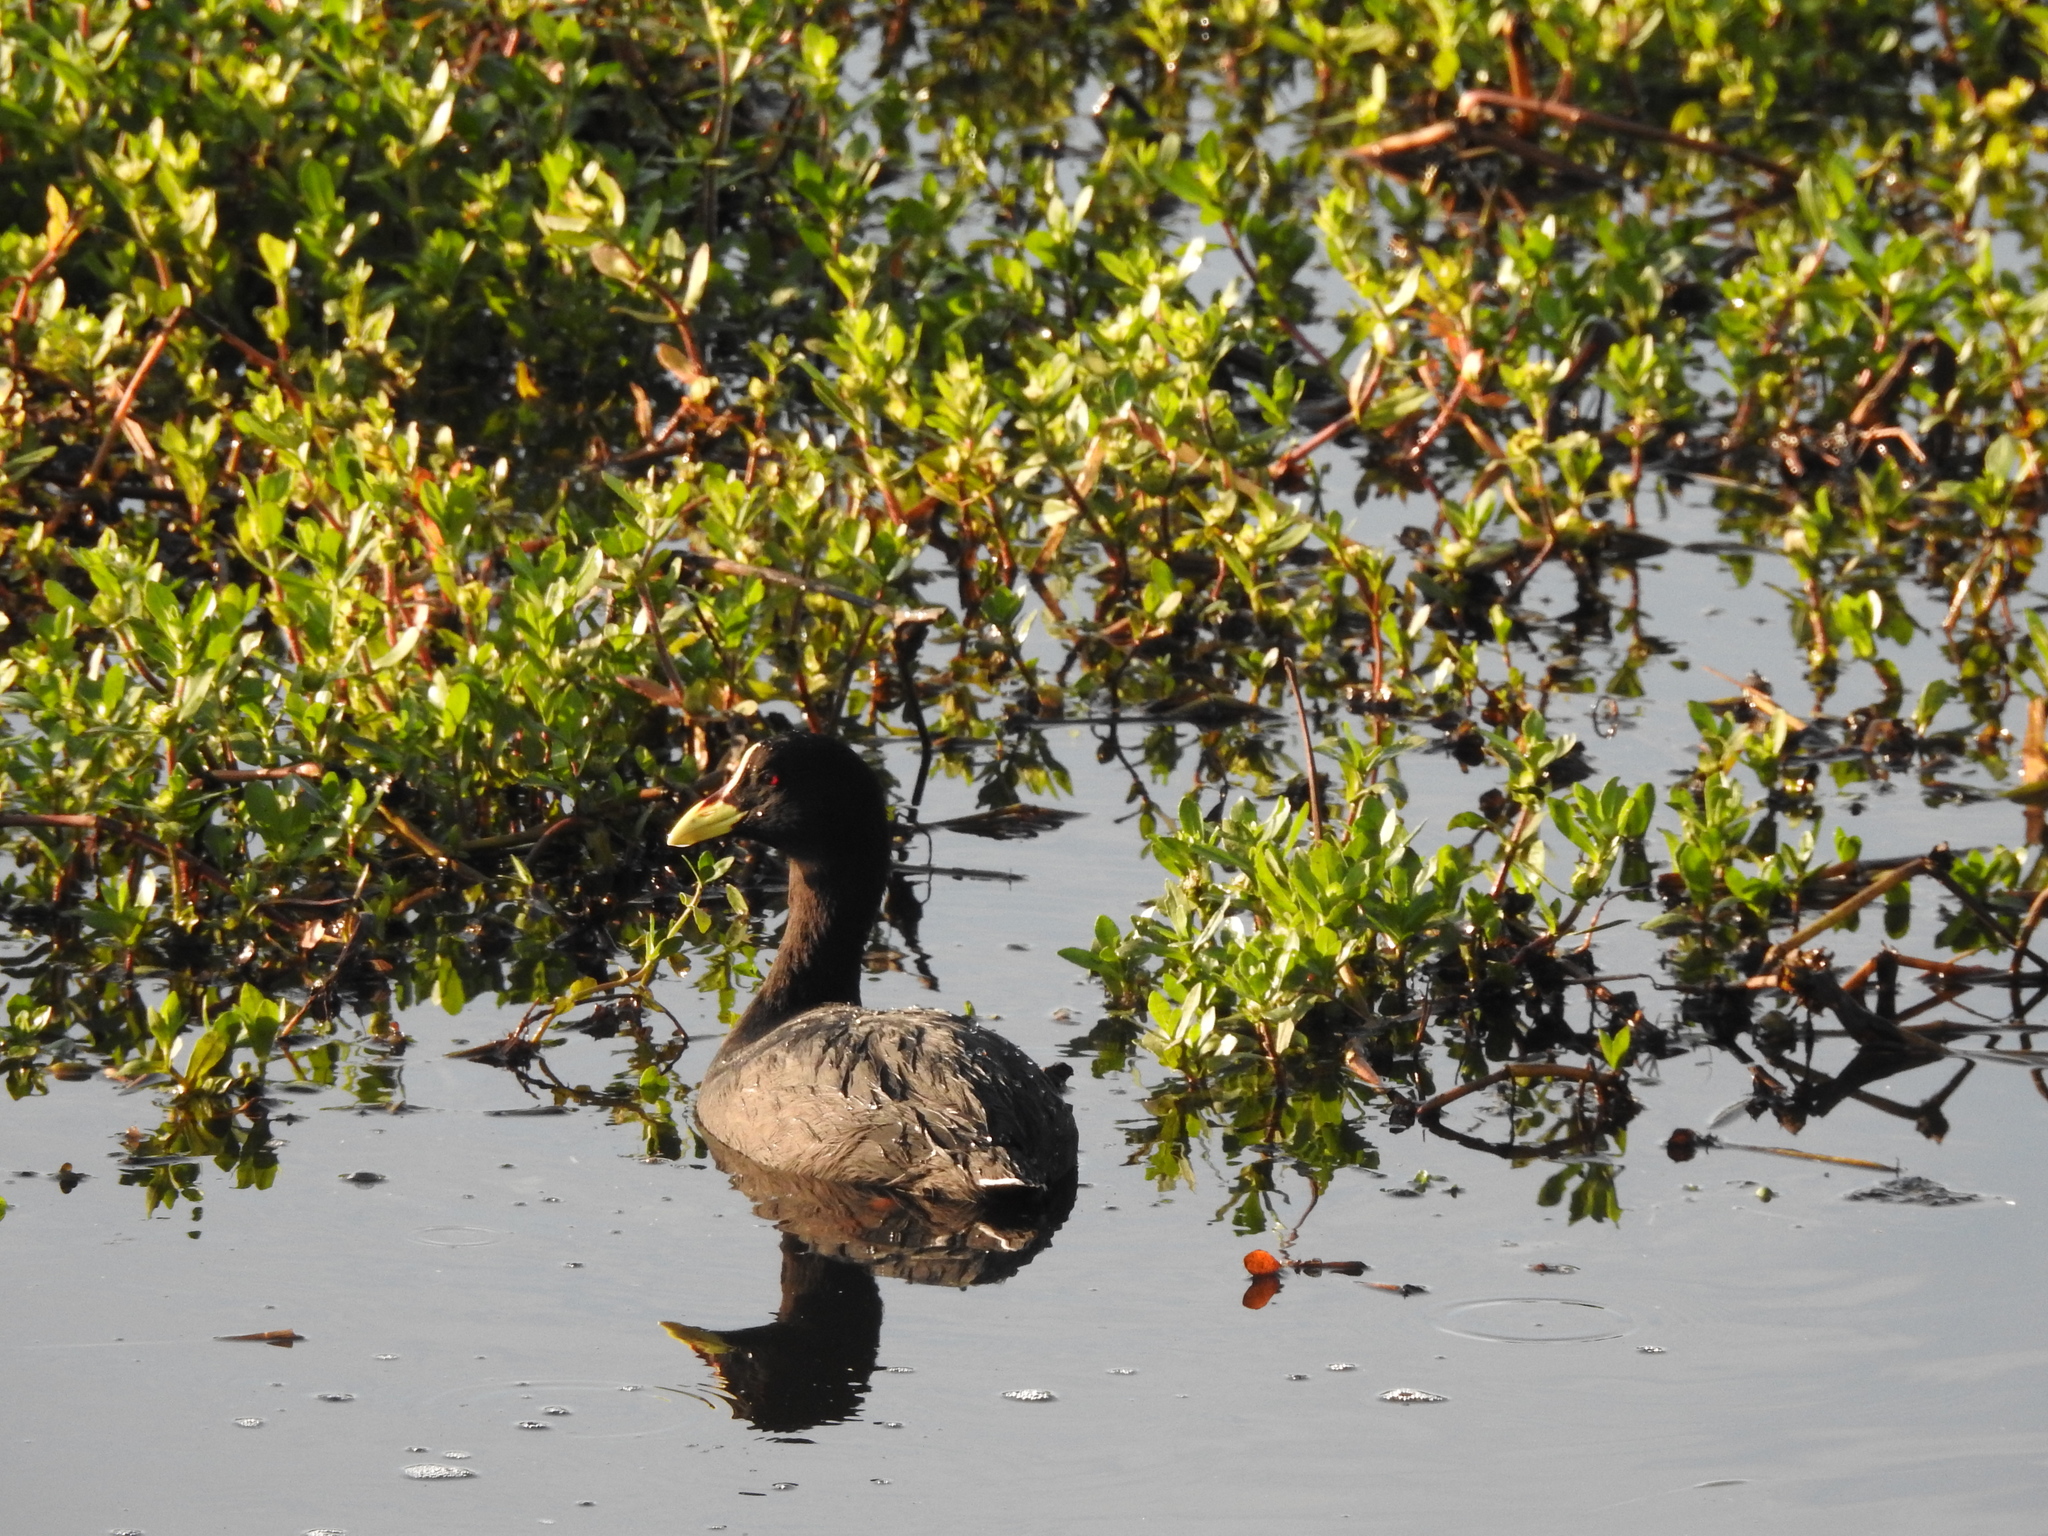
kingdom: Animalia
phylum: Chordata
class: Aves
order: Gruiformes
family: Rallidae
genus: Fulica
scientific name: Fulica armillata
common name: Red-gartered coot
